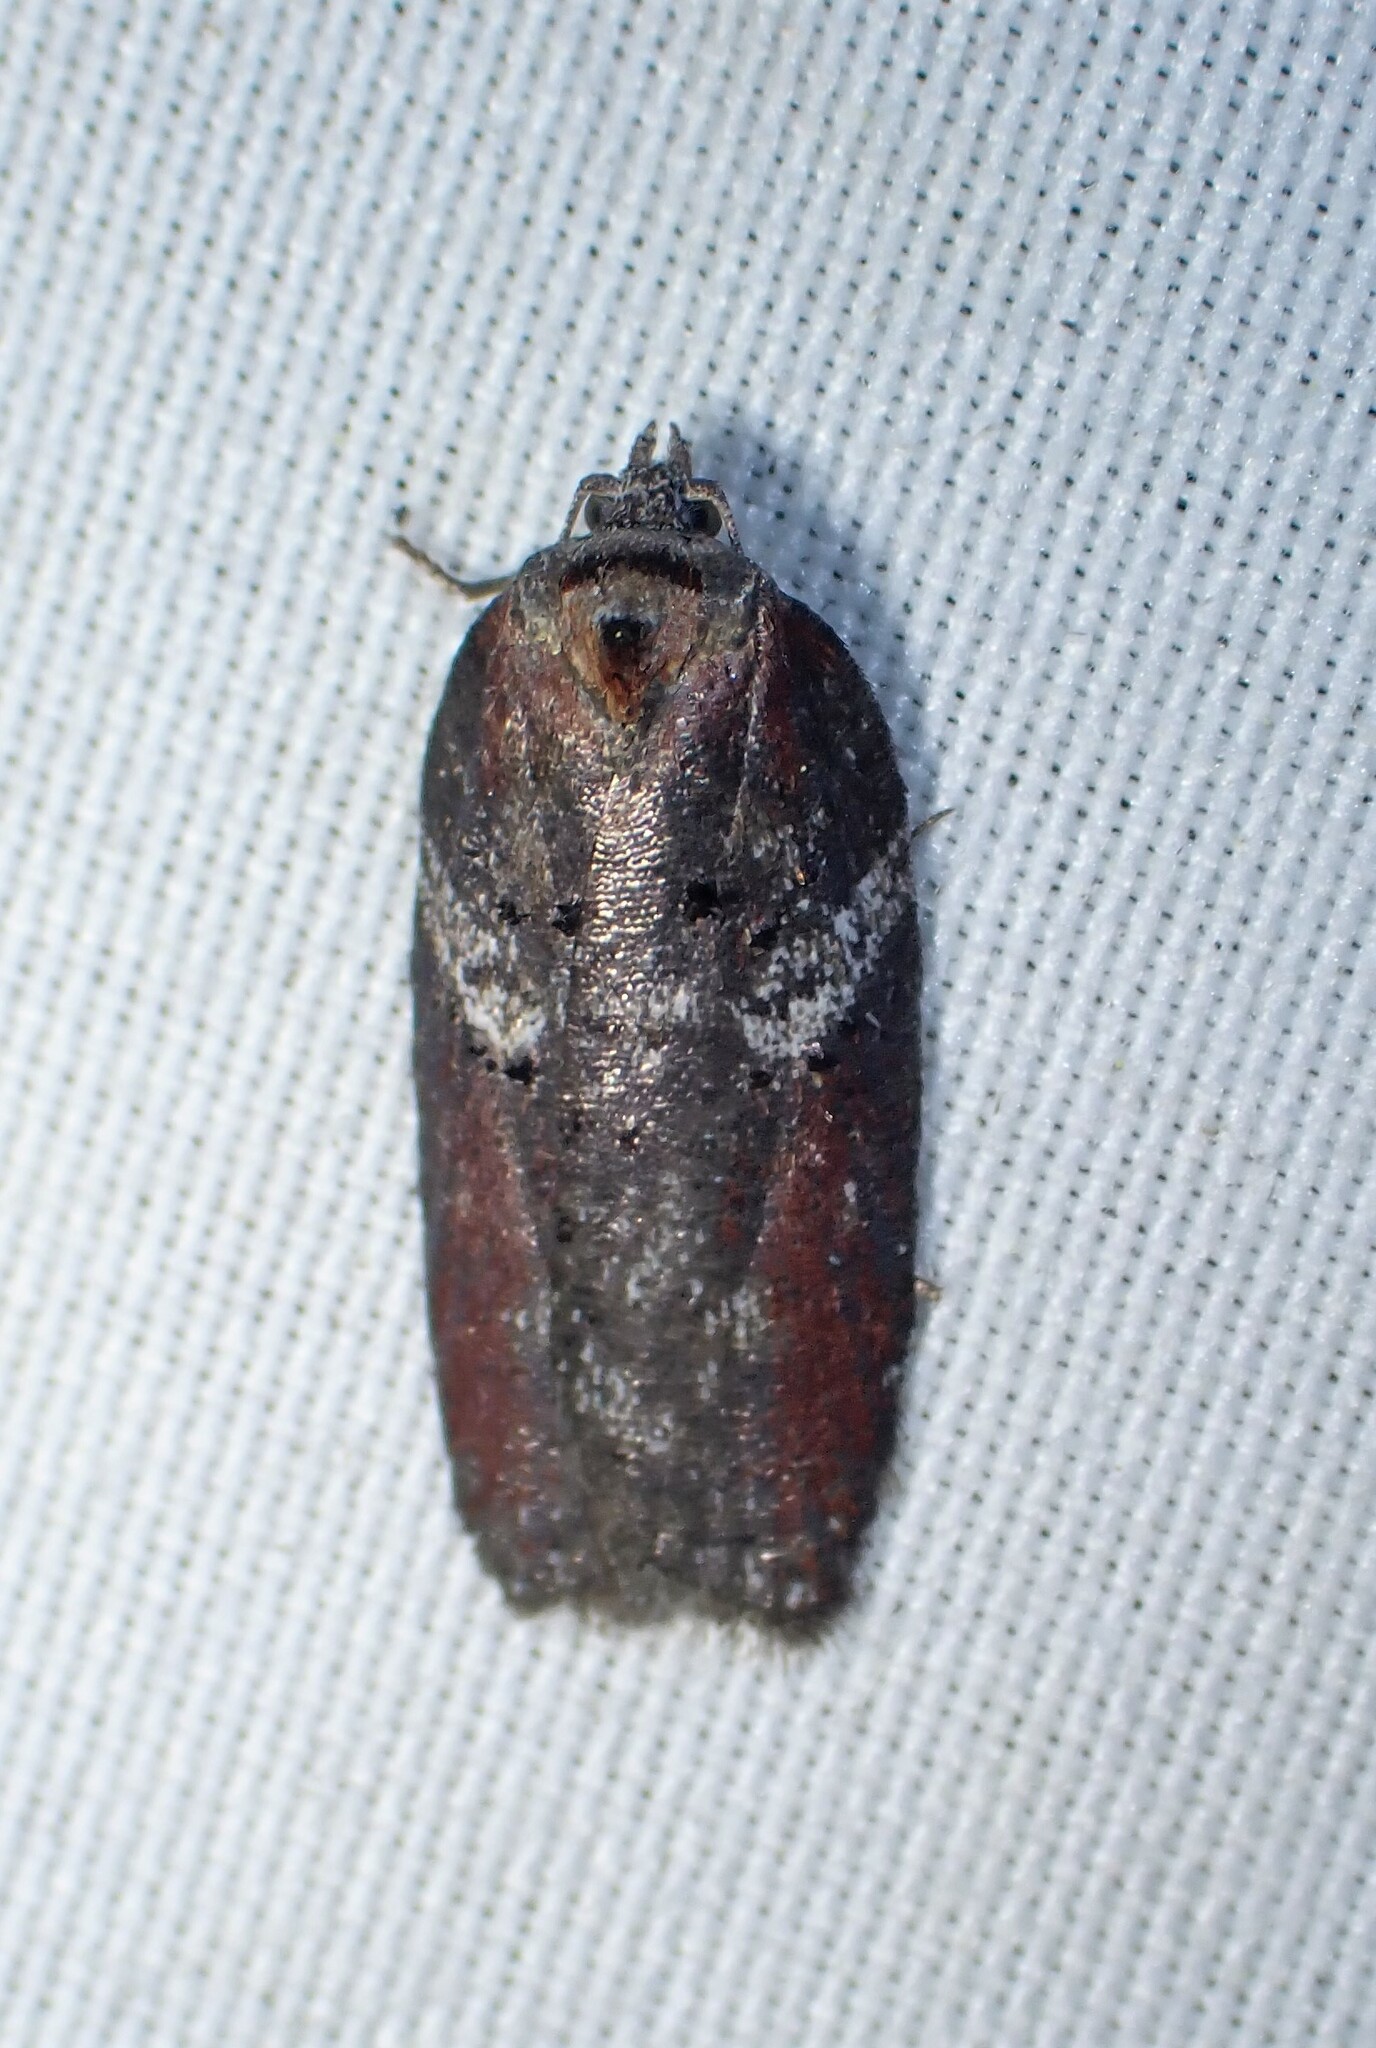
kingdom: Animalia
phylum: Arthropoda
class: Insecta
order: Lepidoptera
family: Tortricidae
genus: Acleris
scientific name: Acleris celiana
